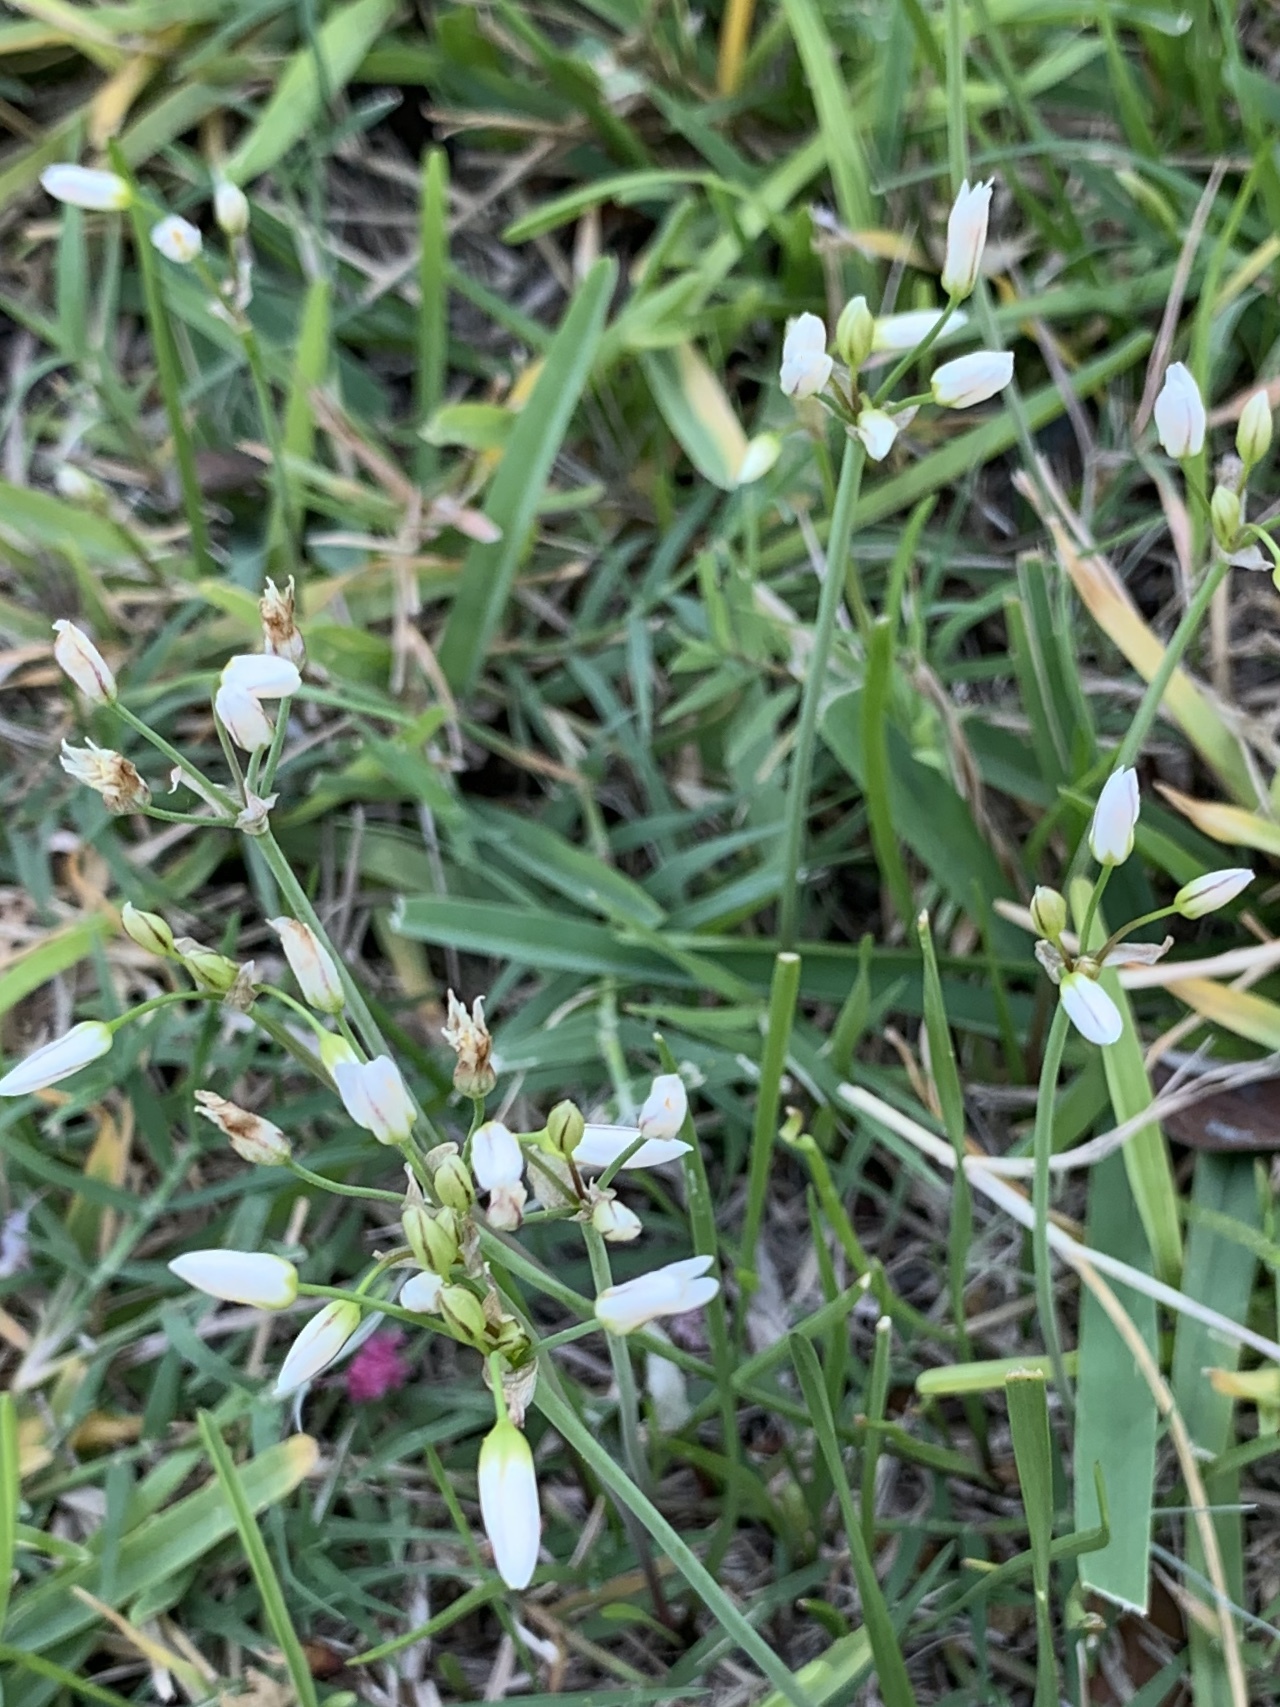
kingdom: Plantae
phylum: Tracheophyta
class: Liliopsida
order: Asparagales
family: Amaryllidaceae
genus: Nothoscordum
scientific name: Nothoscordum bivalve
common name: Crow-poison
